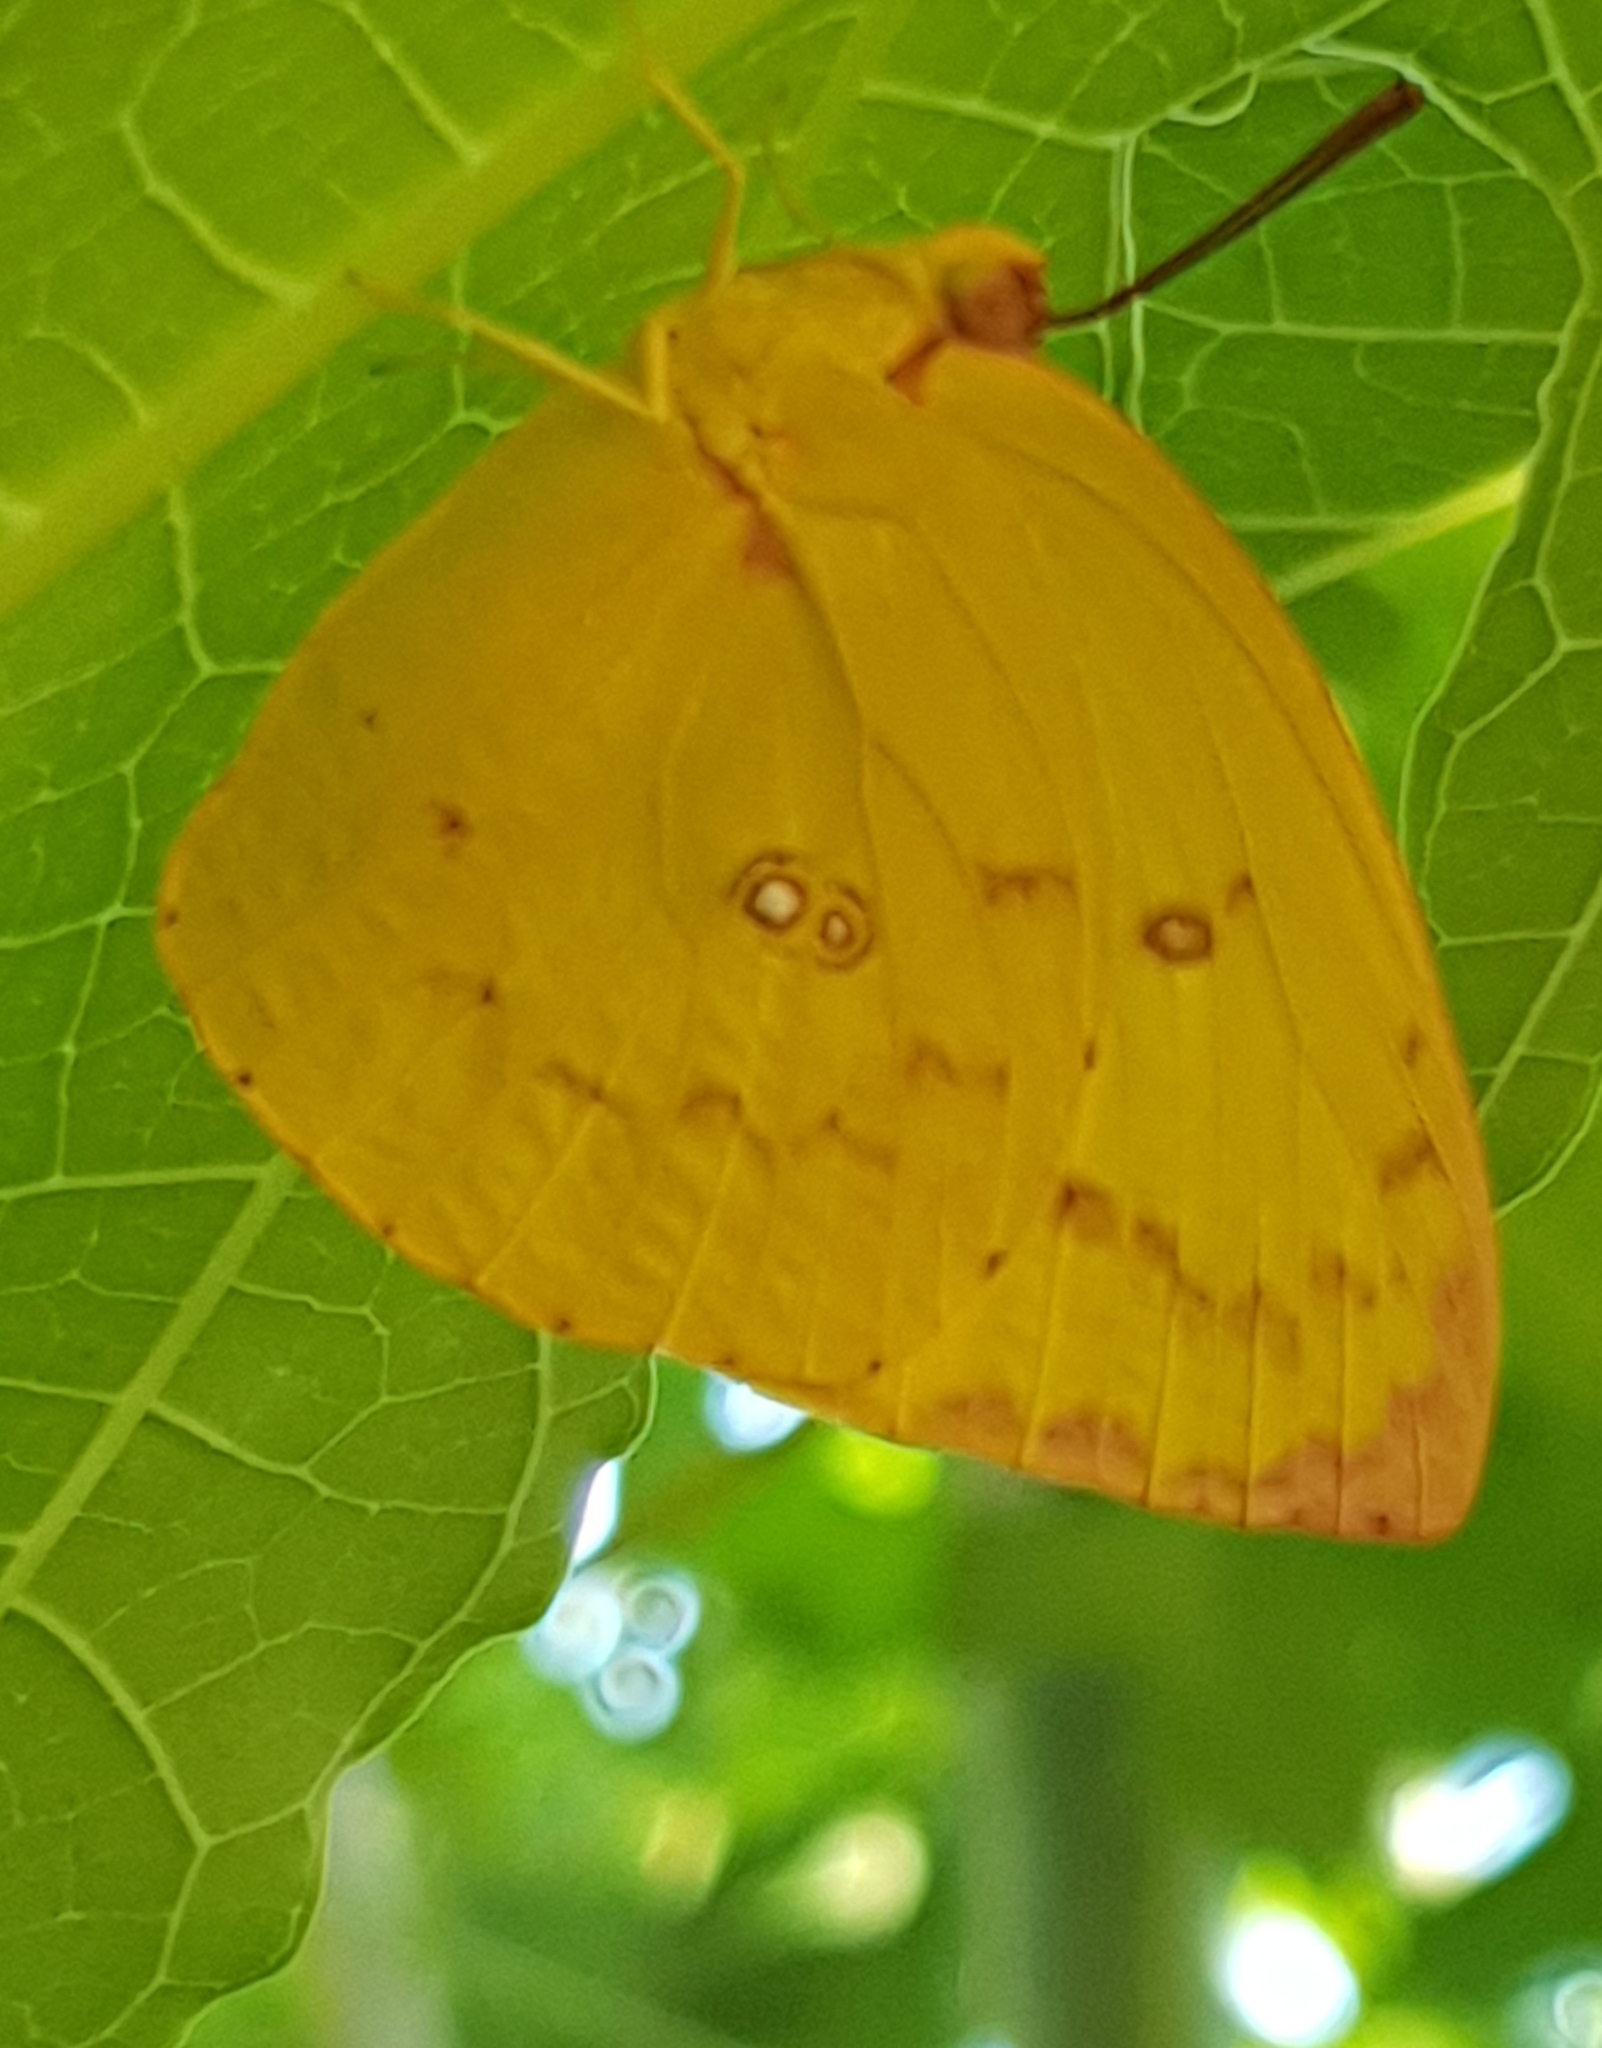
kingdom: Animalia
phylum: Arthropoda
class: Insecta
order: Lepidoptera
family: Pieridae
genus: Catopsilia
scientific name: Catopsilia scylla
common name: Orange emigrant
